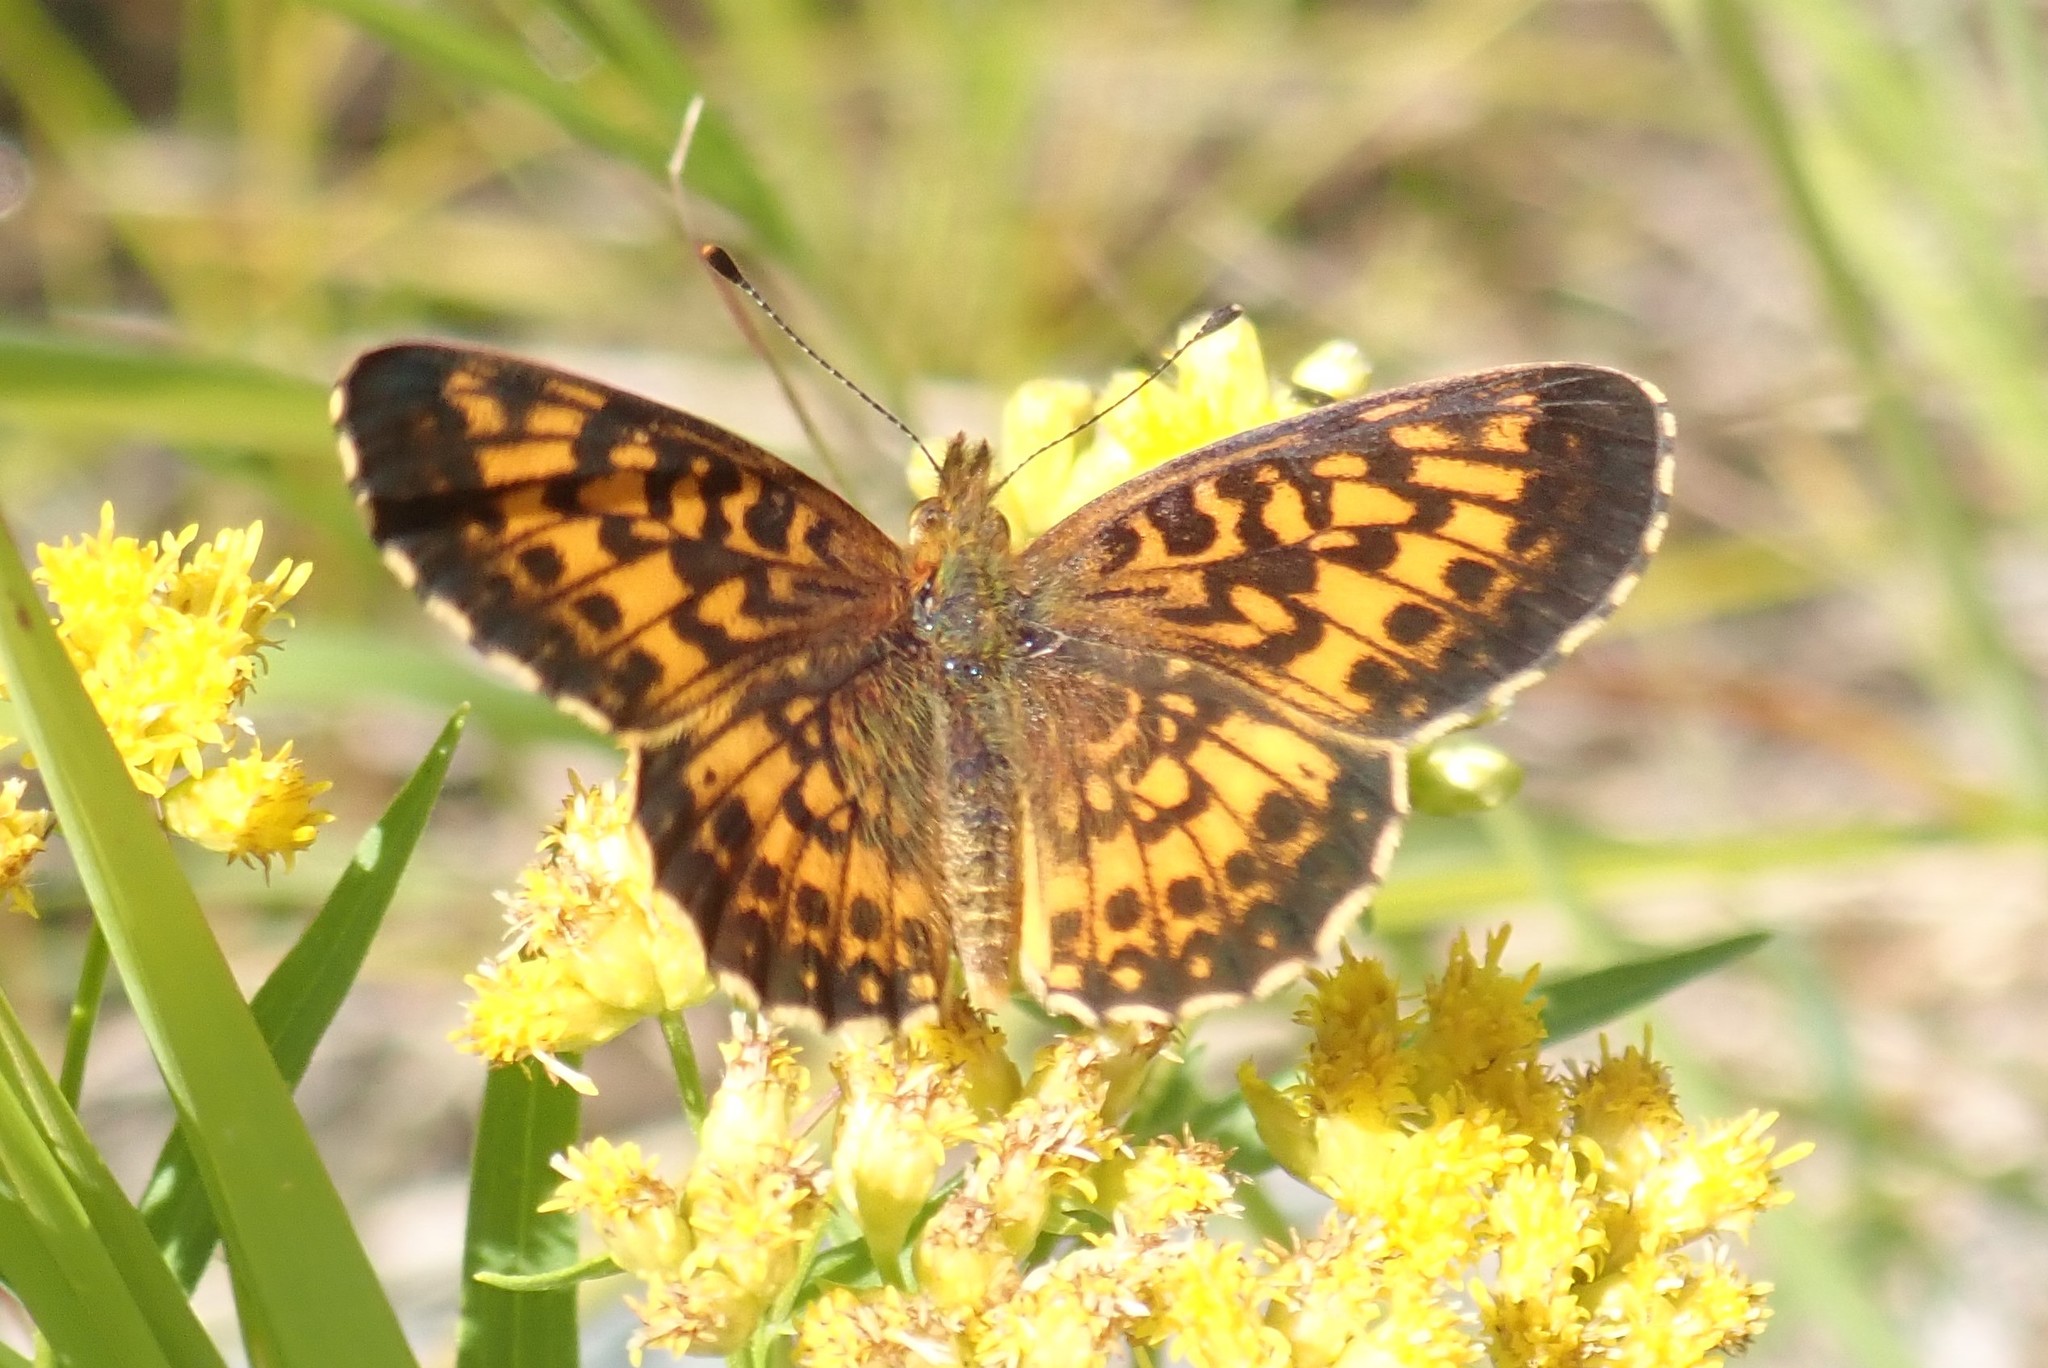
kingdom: Animalia
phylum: Arthropoda
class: Insecta
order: Lepidoptera
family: Nymphalidae
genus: Boloria
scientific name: Boloria
